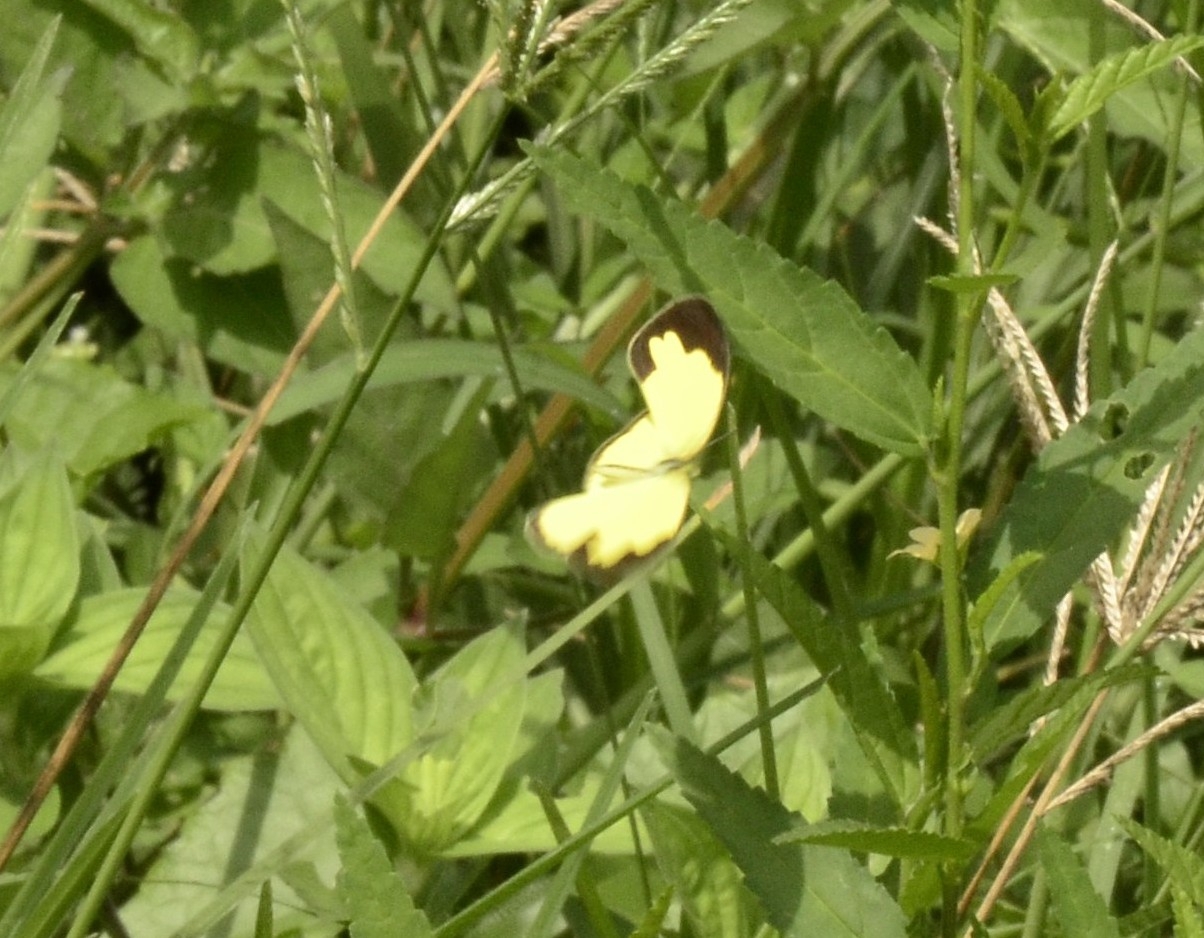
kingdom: Animalia
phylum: Arthropoda
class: Insecta
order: Lepidoptera
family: Pieridae
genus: Eurema
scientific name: Eurema hecabe
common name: Pale grass yellow
